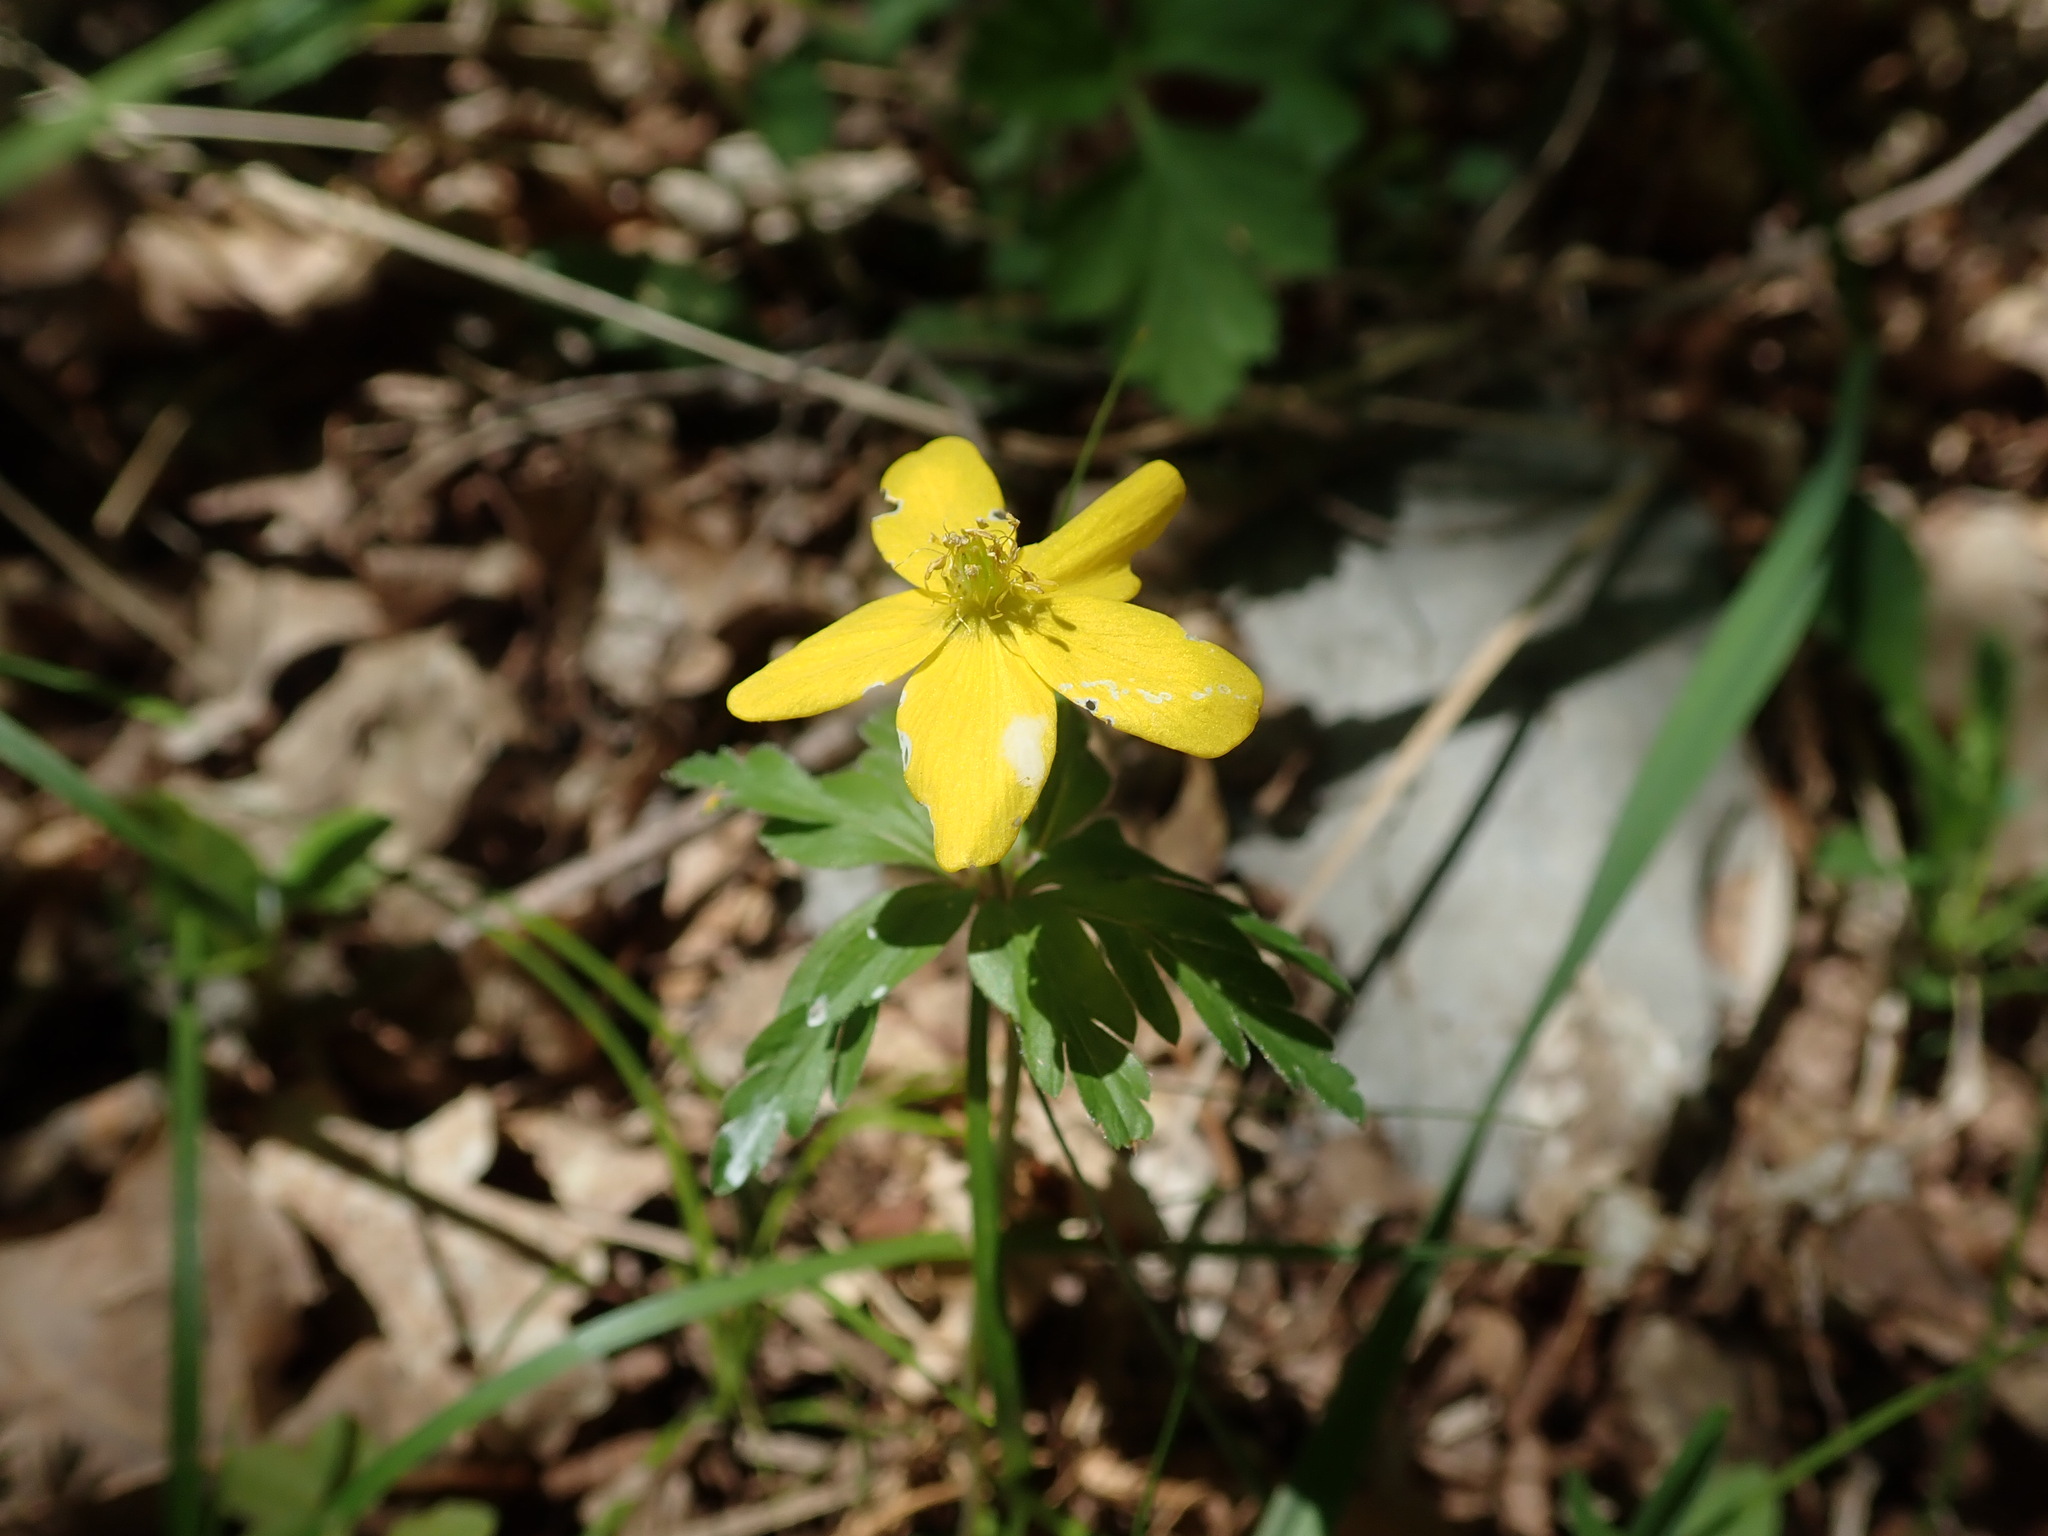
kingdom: Plantae
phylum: Tracheophyta
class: Magnoliopsida
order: Ranunculales
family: Ranunculaceae
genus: Anemone
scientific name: Anemone ranunculoides
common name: Yellow anemone
